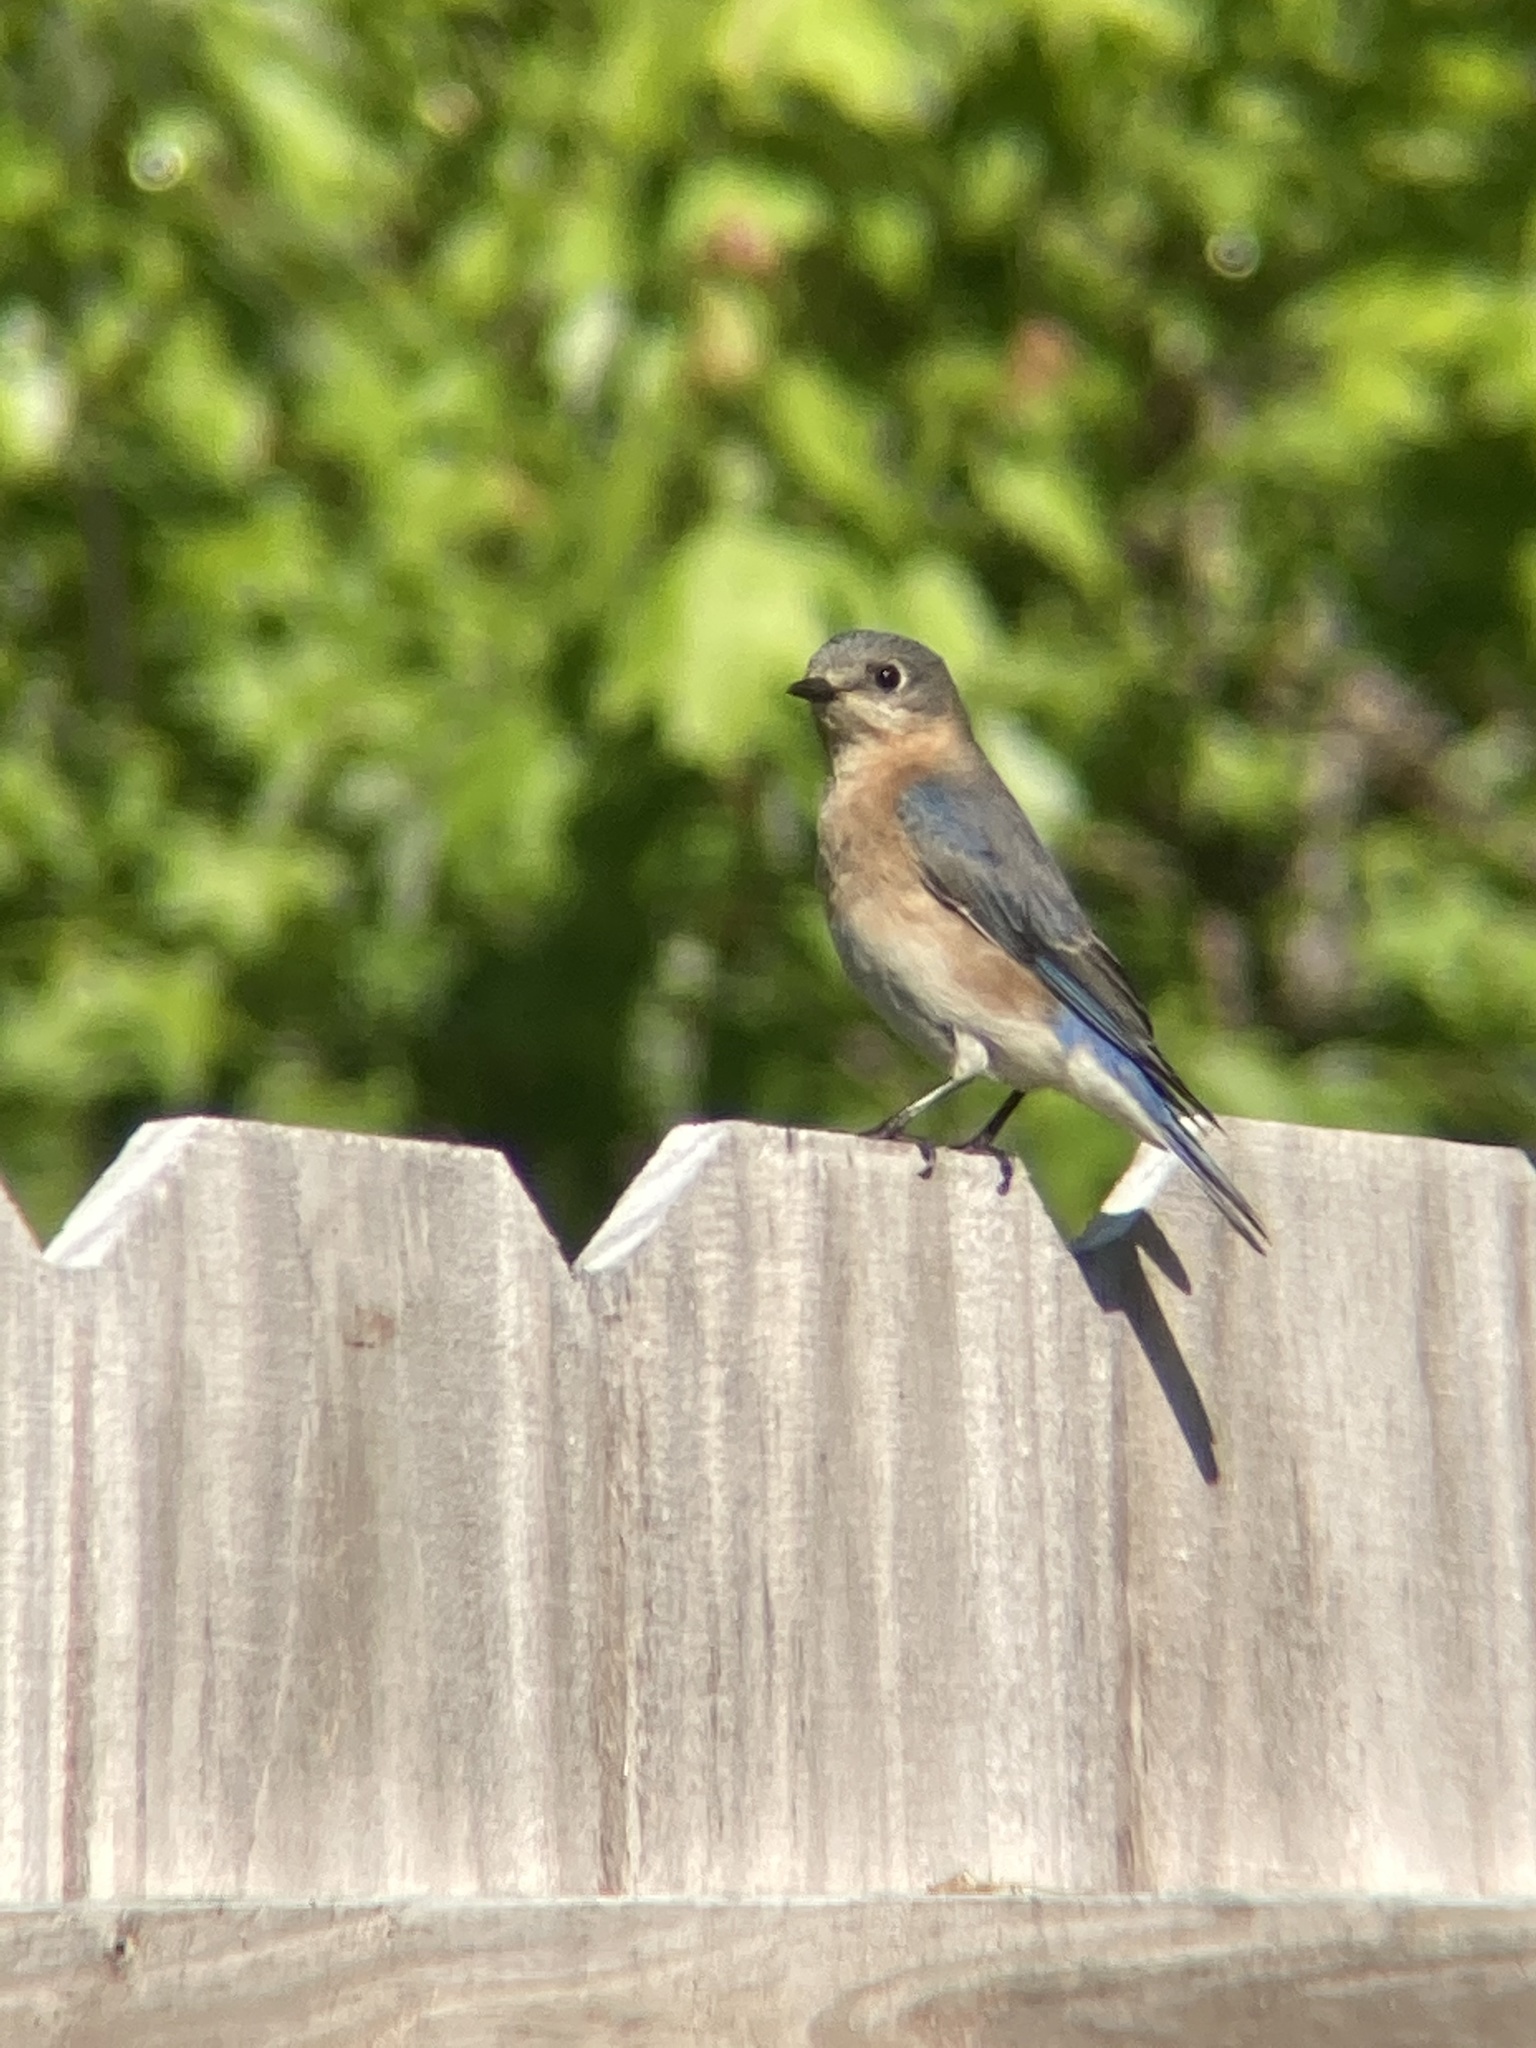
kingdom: Animalia
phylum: Chordata
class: Aves
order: Passeriformes
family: Turdidae
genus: Sialia
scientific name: Sialia sialis
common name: Eastern bluebird
